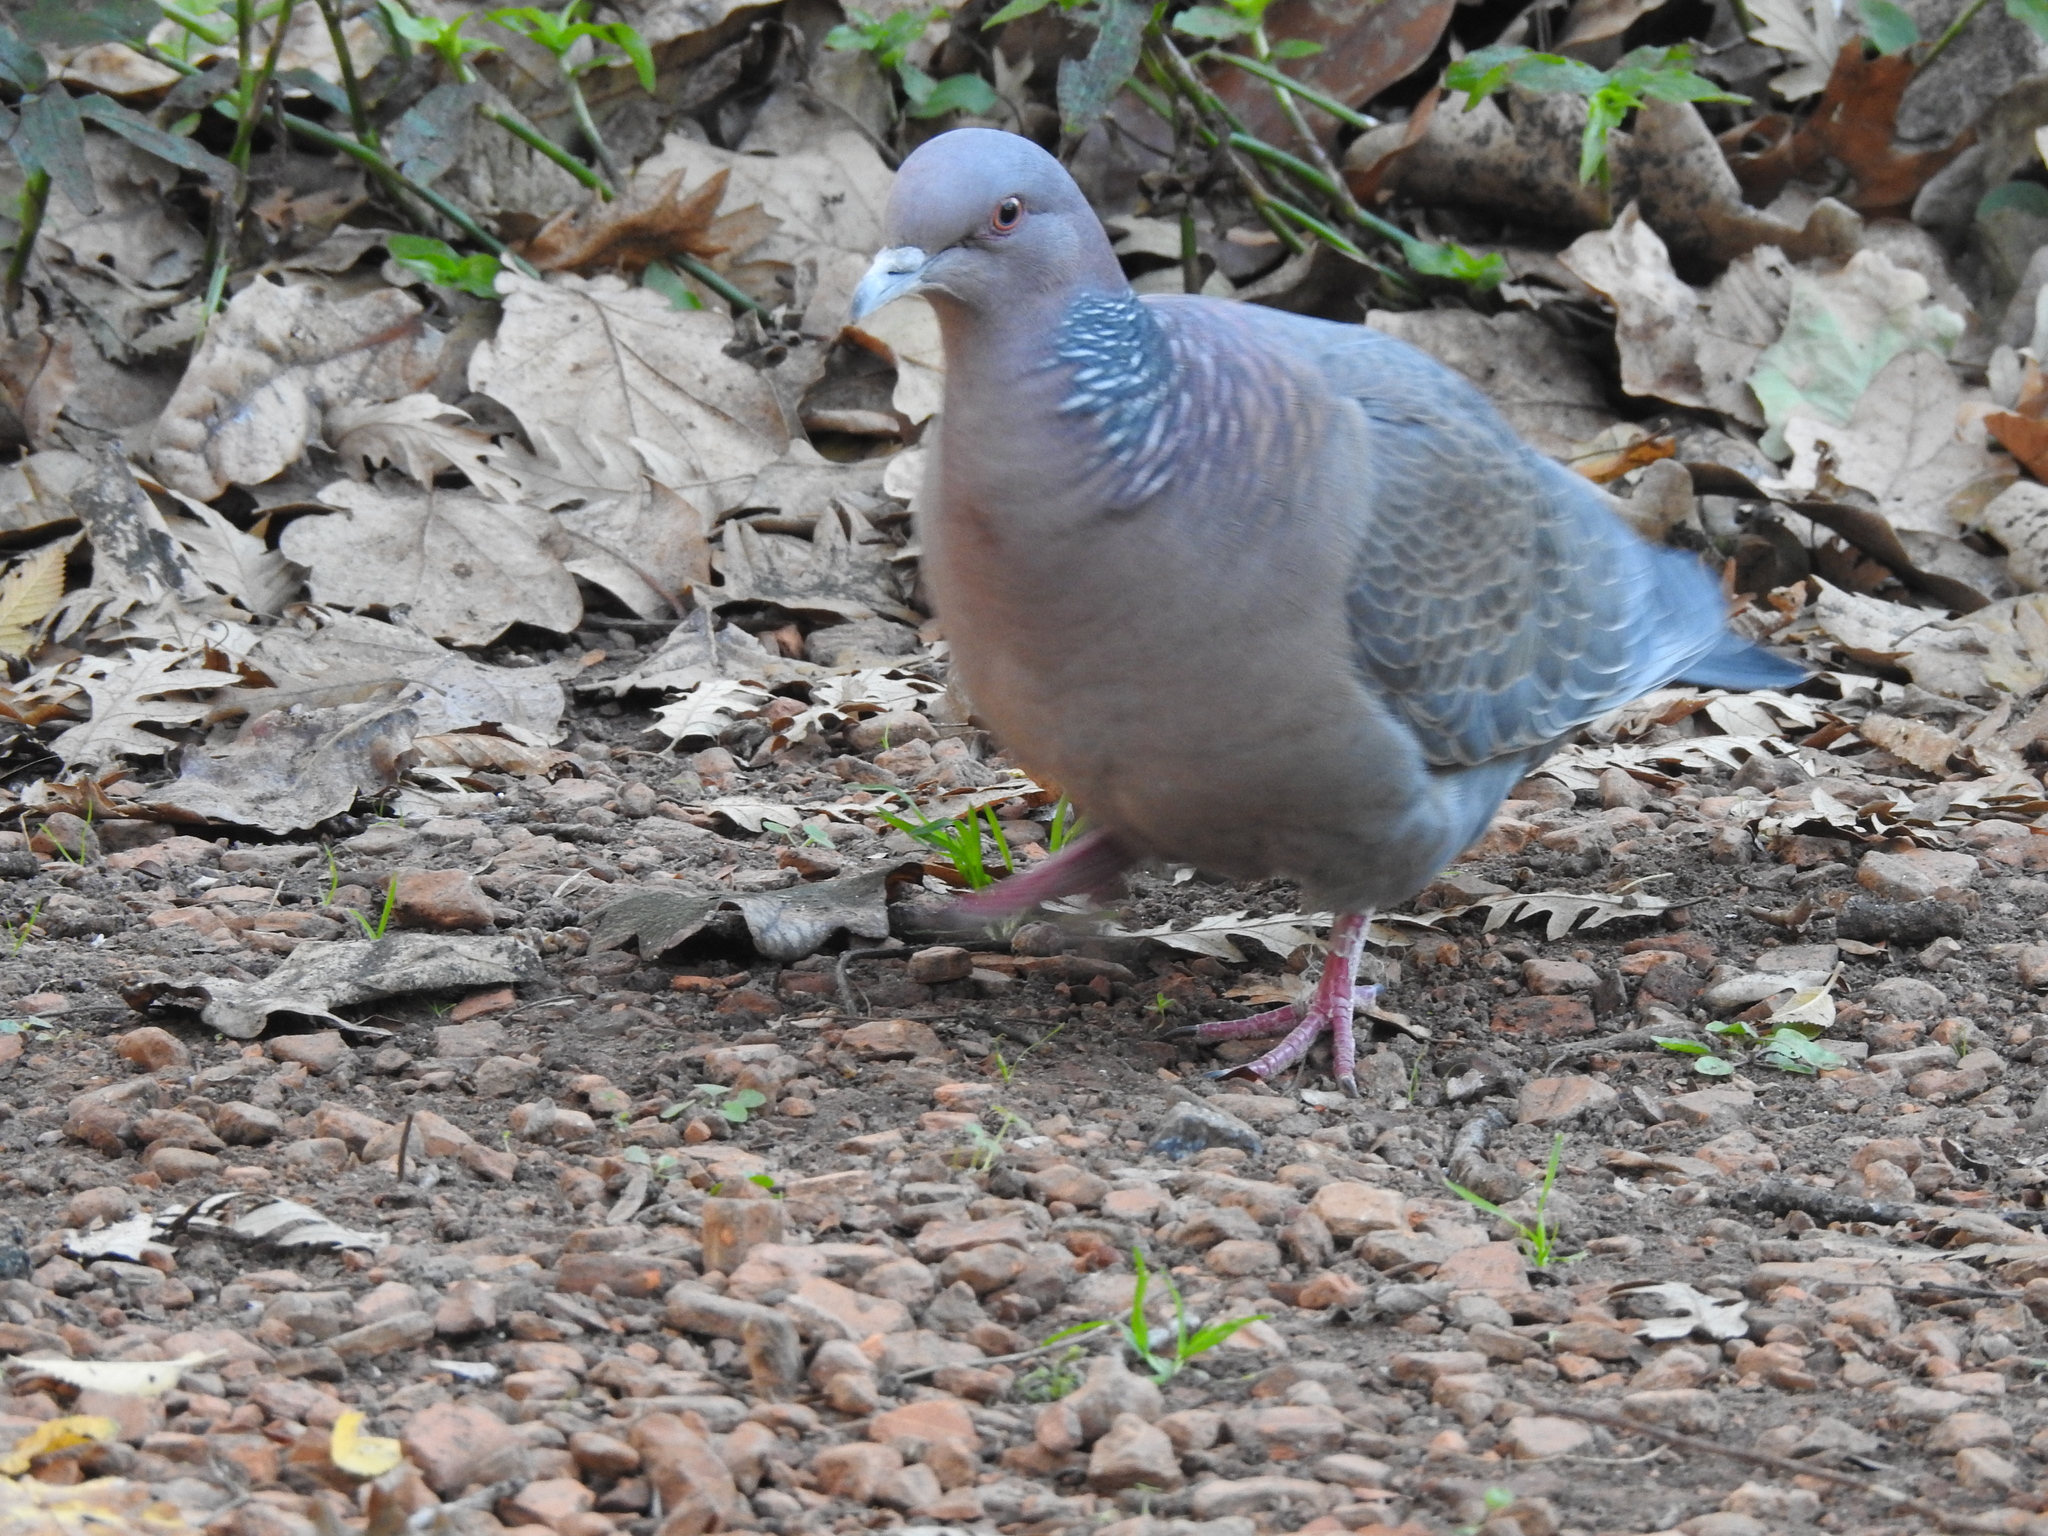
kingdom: Animalia
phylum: Chordata
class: Aves
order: Columbiformes
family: Columbidae
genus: Patagioenas
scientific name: Patagioenas picazuro
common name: Picazuro pigeon
